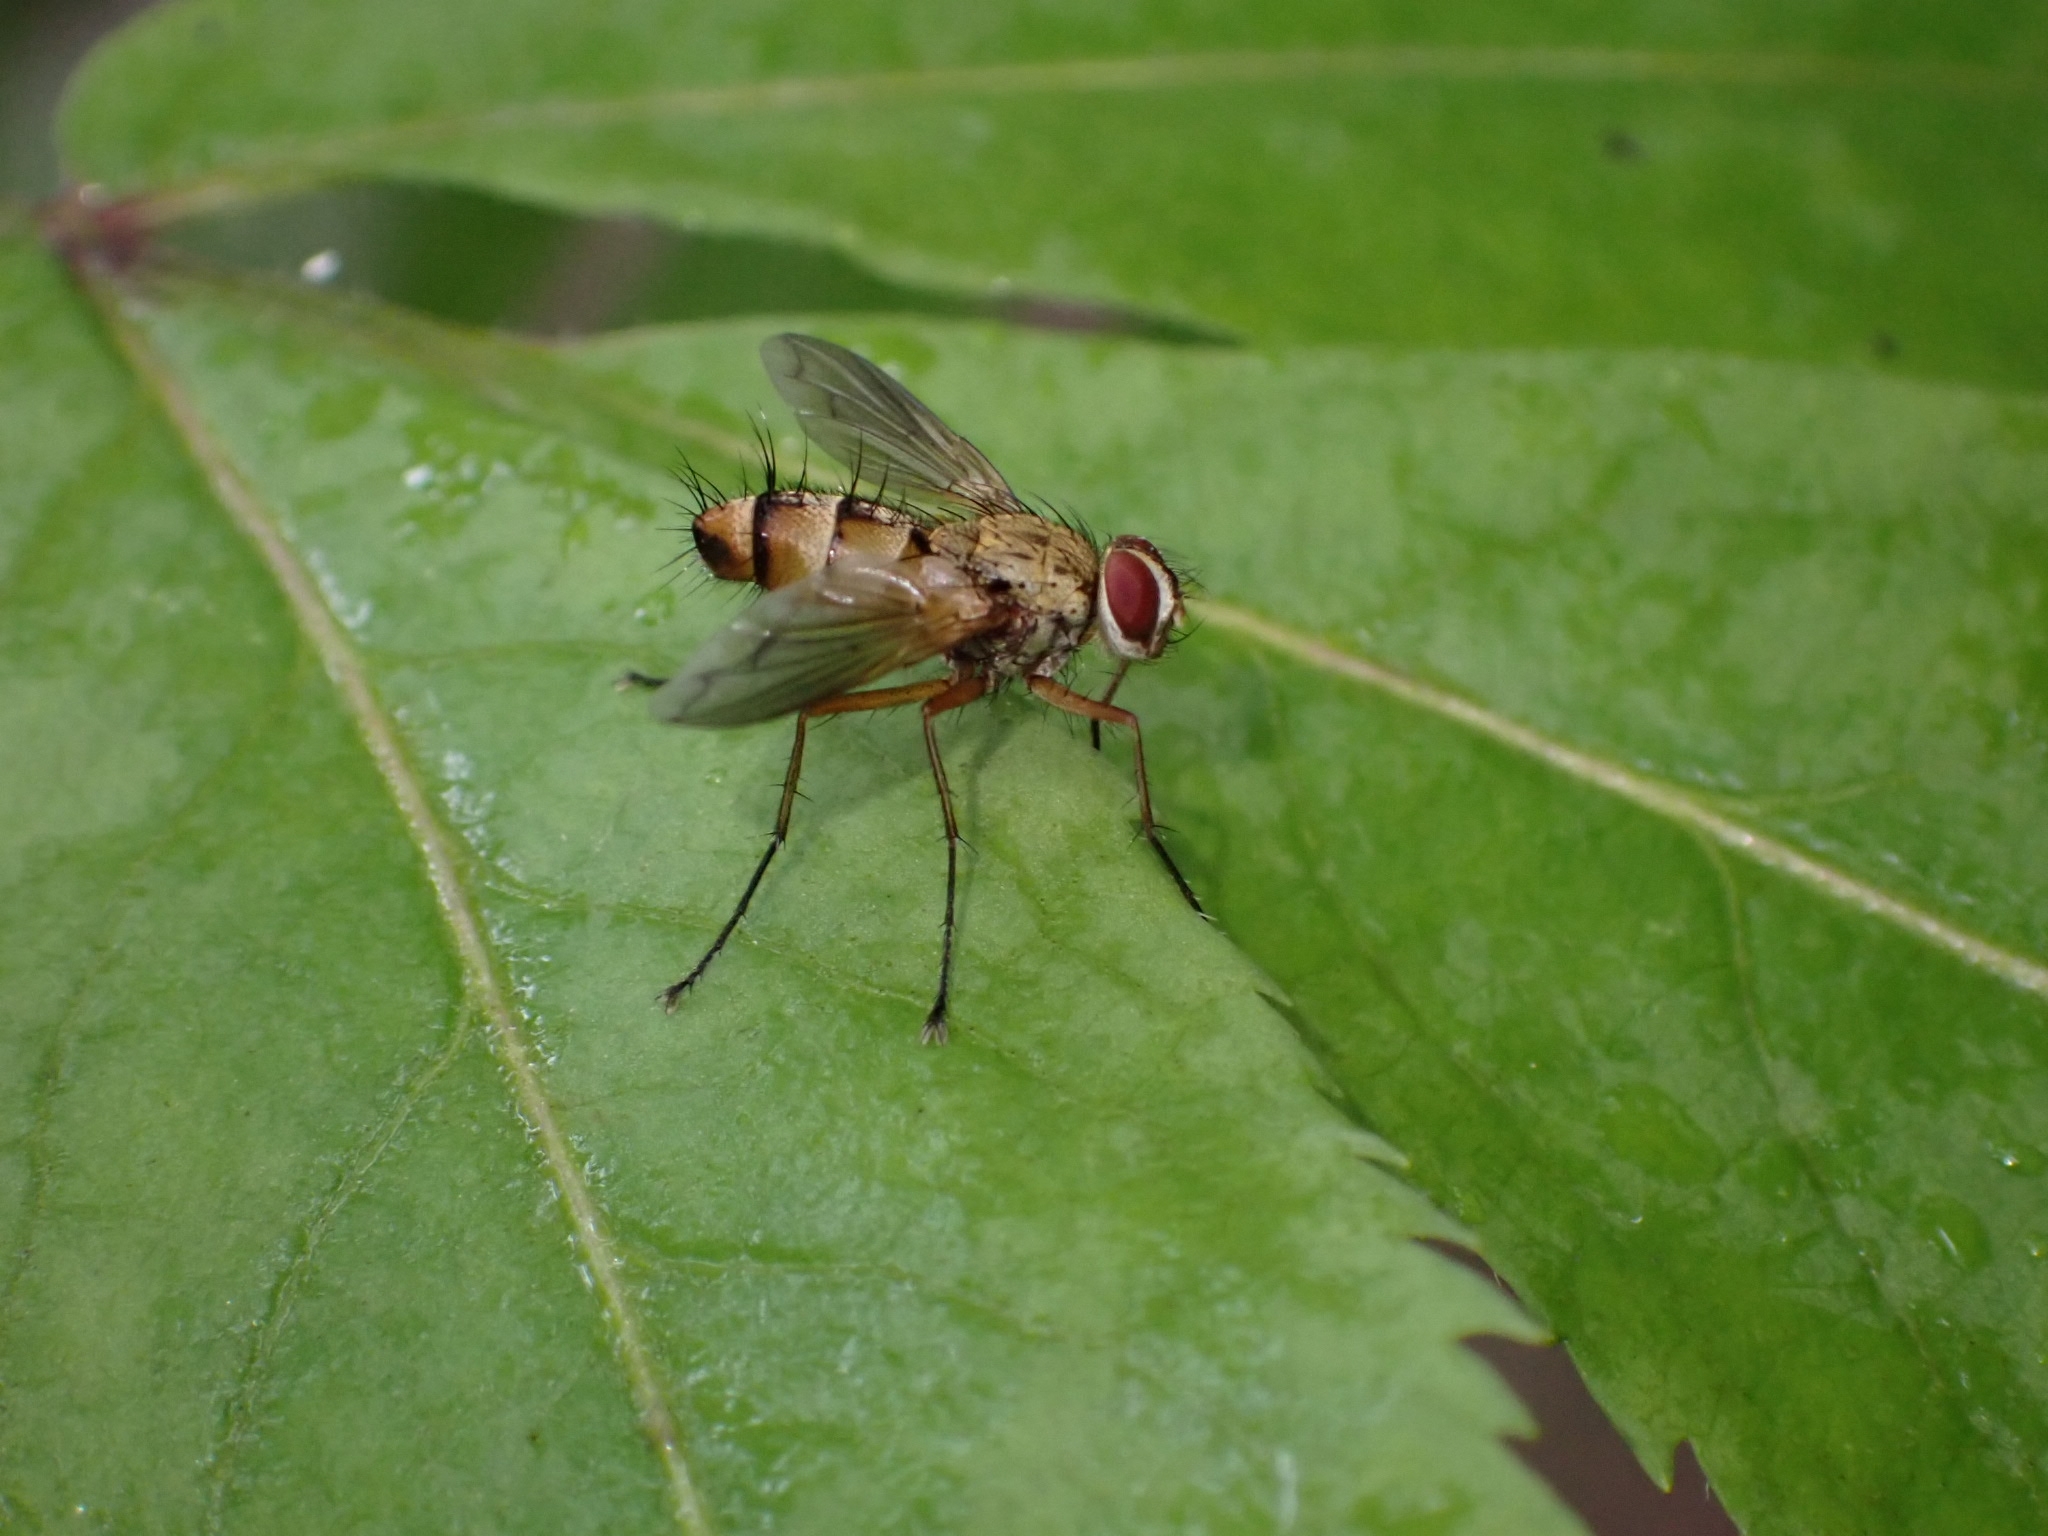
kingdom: Animalia
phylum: Arthropoda
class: Insecta
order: Diptera
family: Tachinidae
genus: Dexia
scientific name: Dexia vacua
